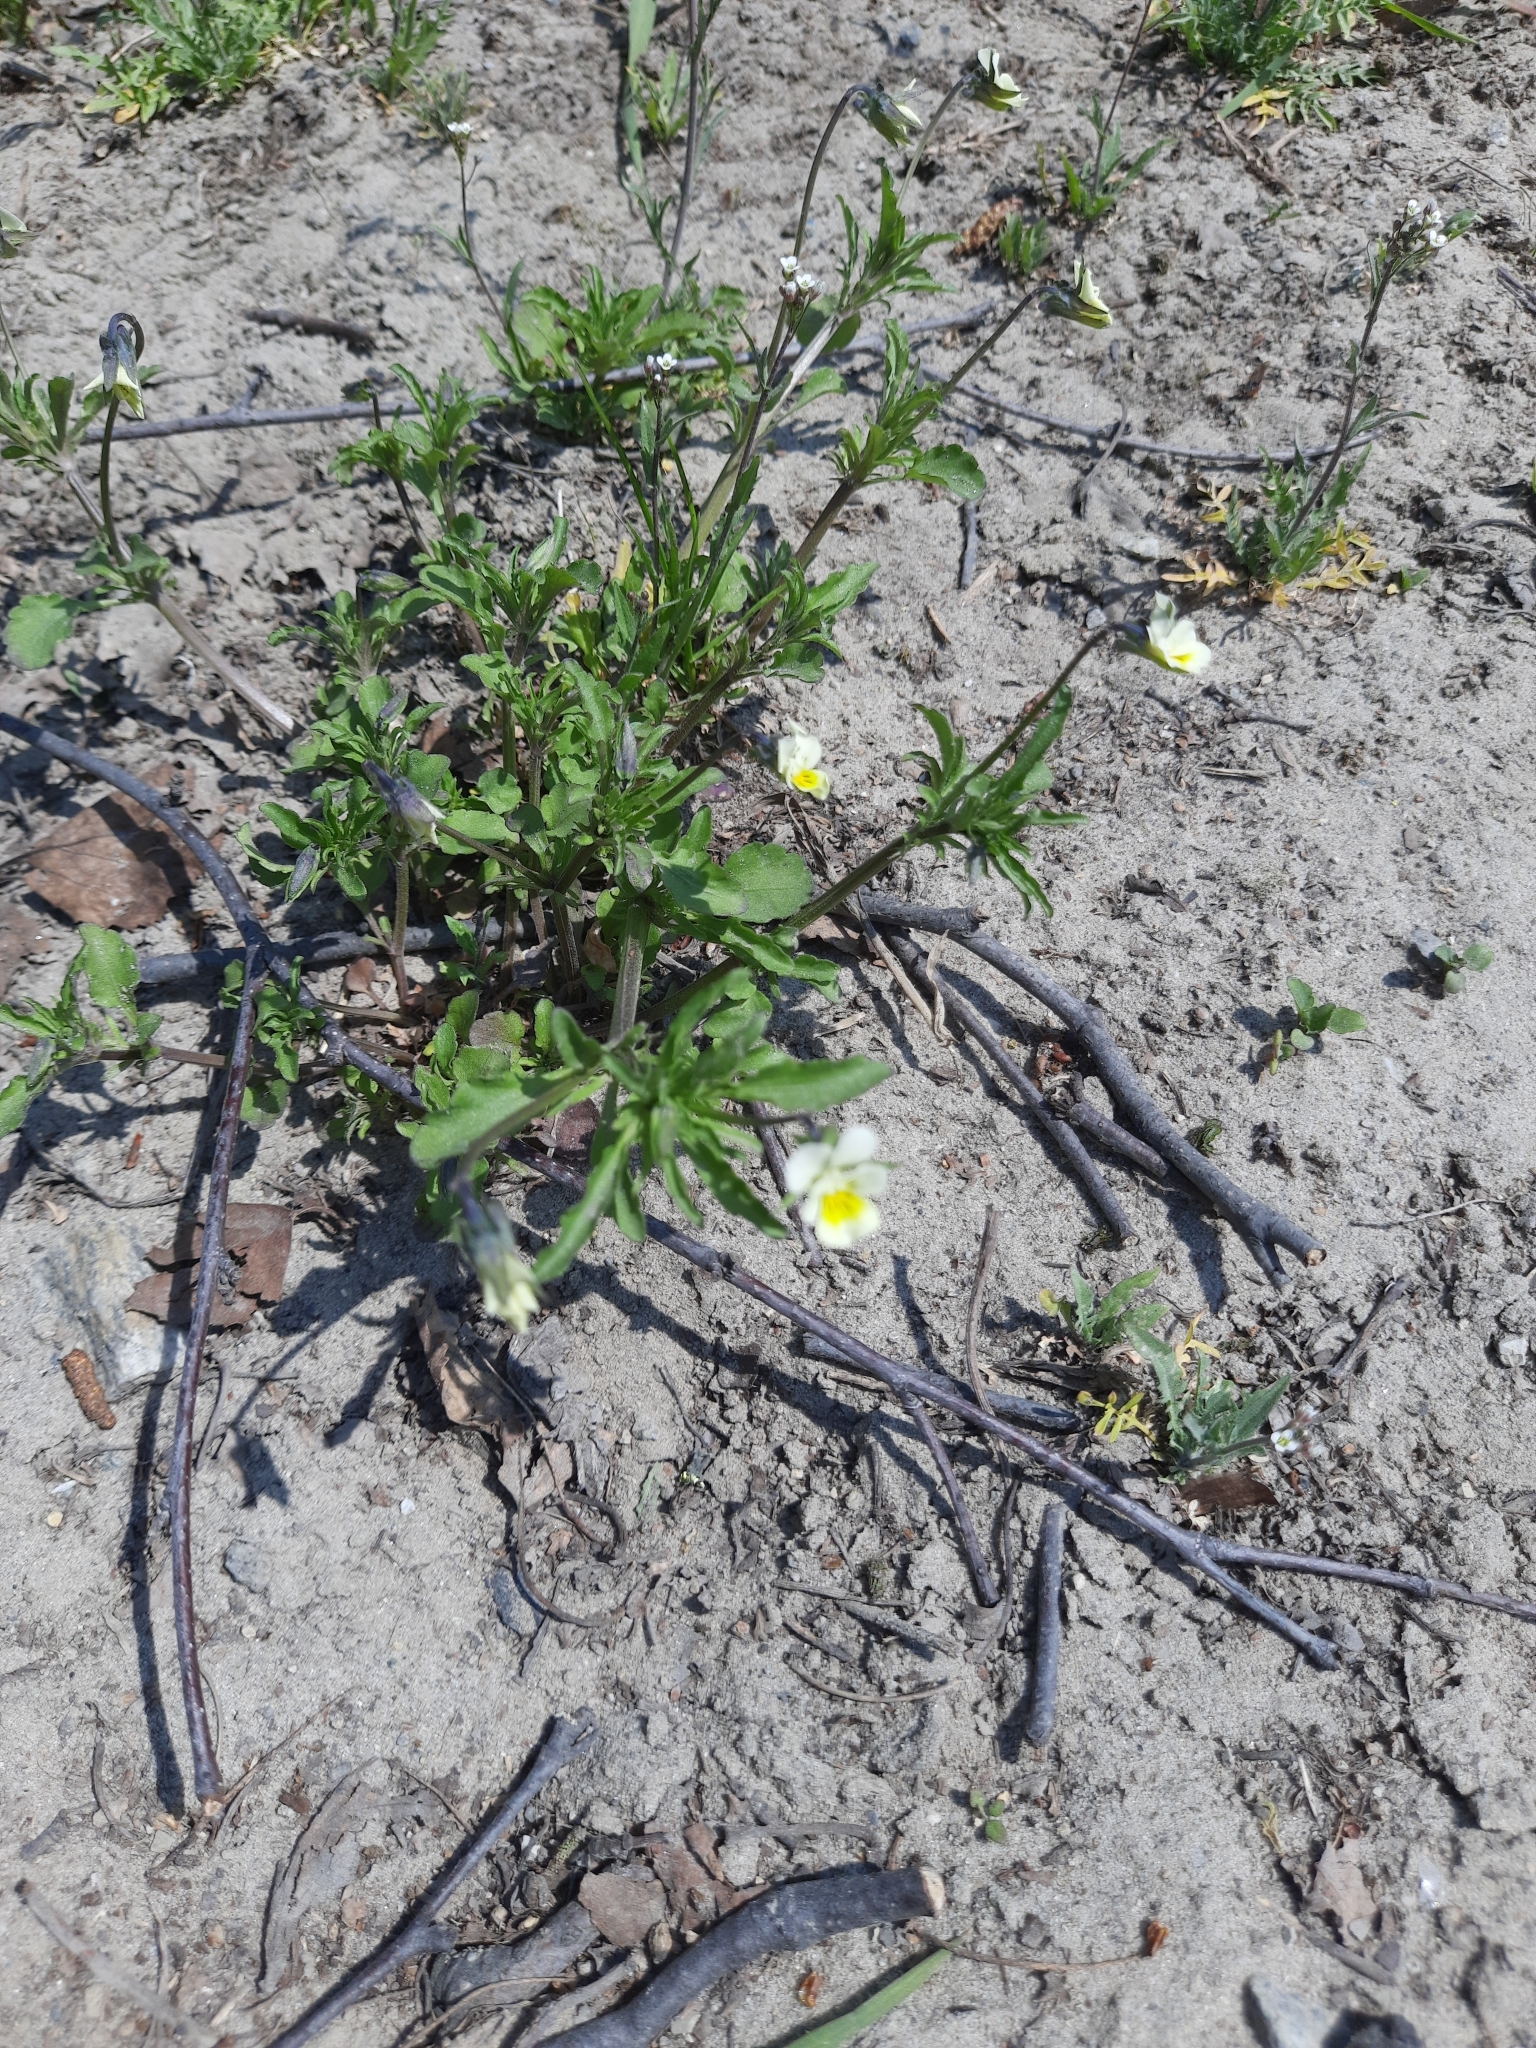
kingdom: Plantae
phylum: Tracheophyta
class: Magnoliopsida
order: Malpighiales
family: Violaceae
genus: Viola
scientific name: Viola arvensis
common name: Field pansy
